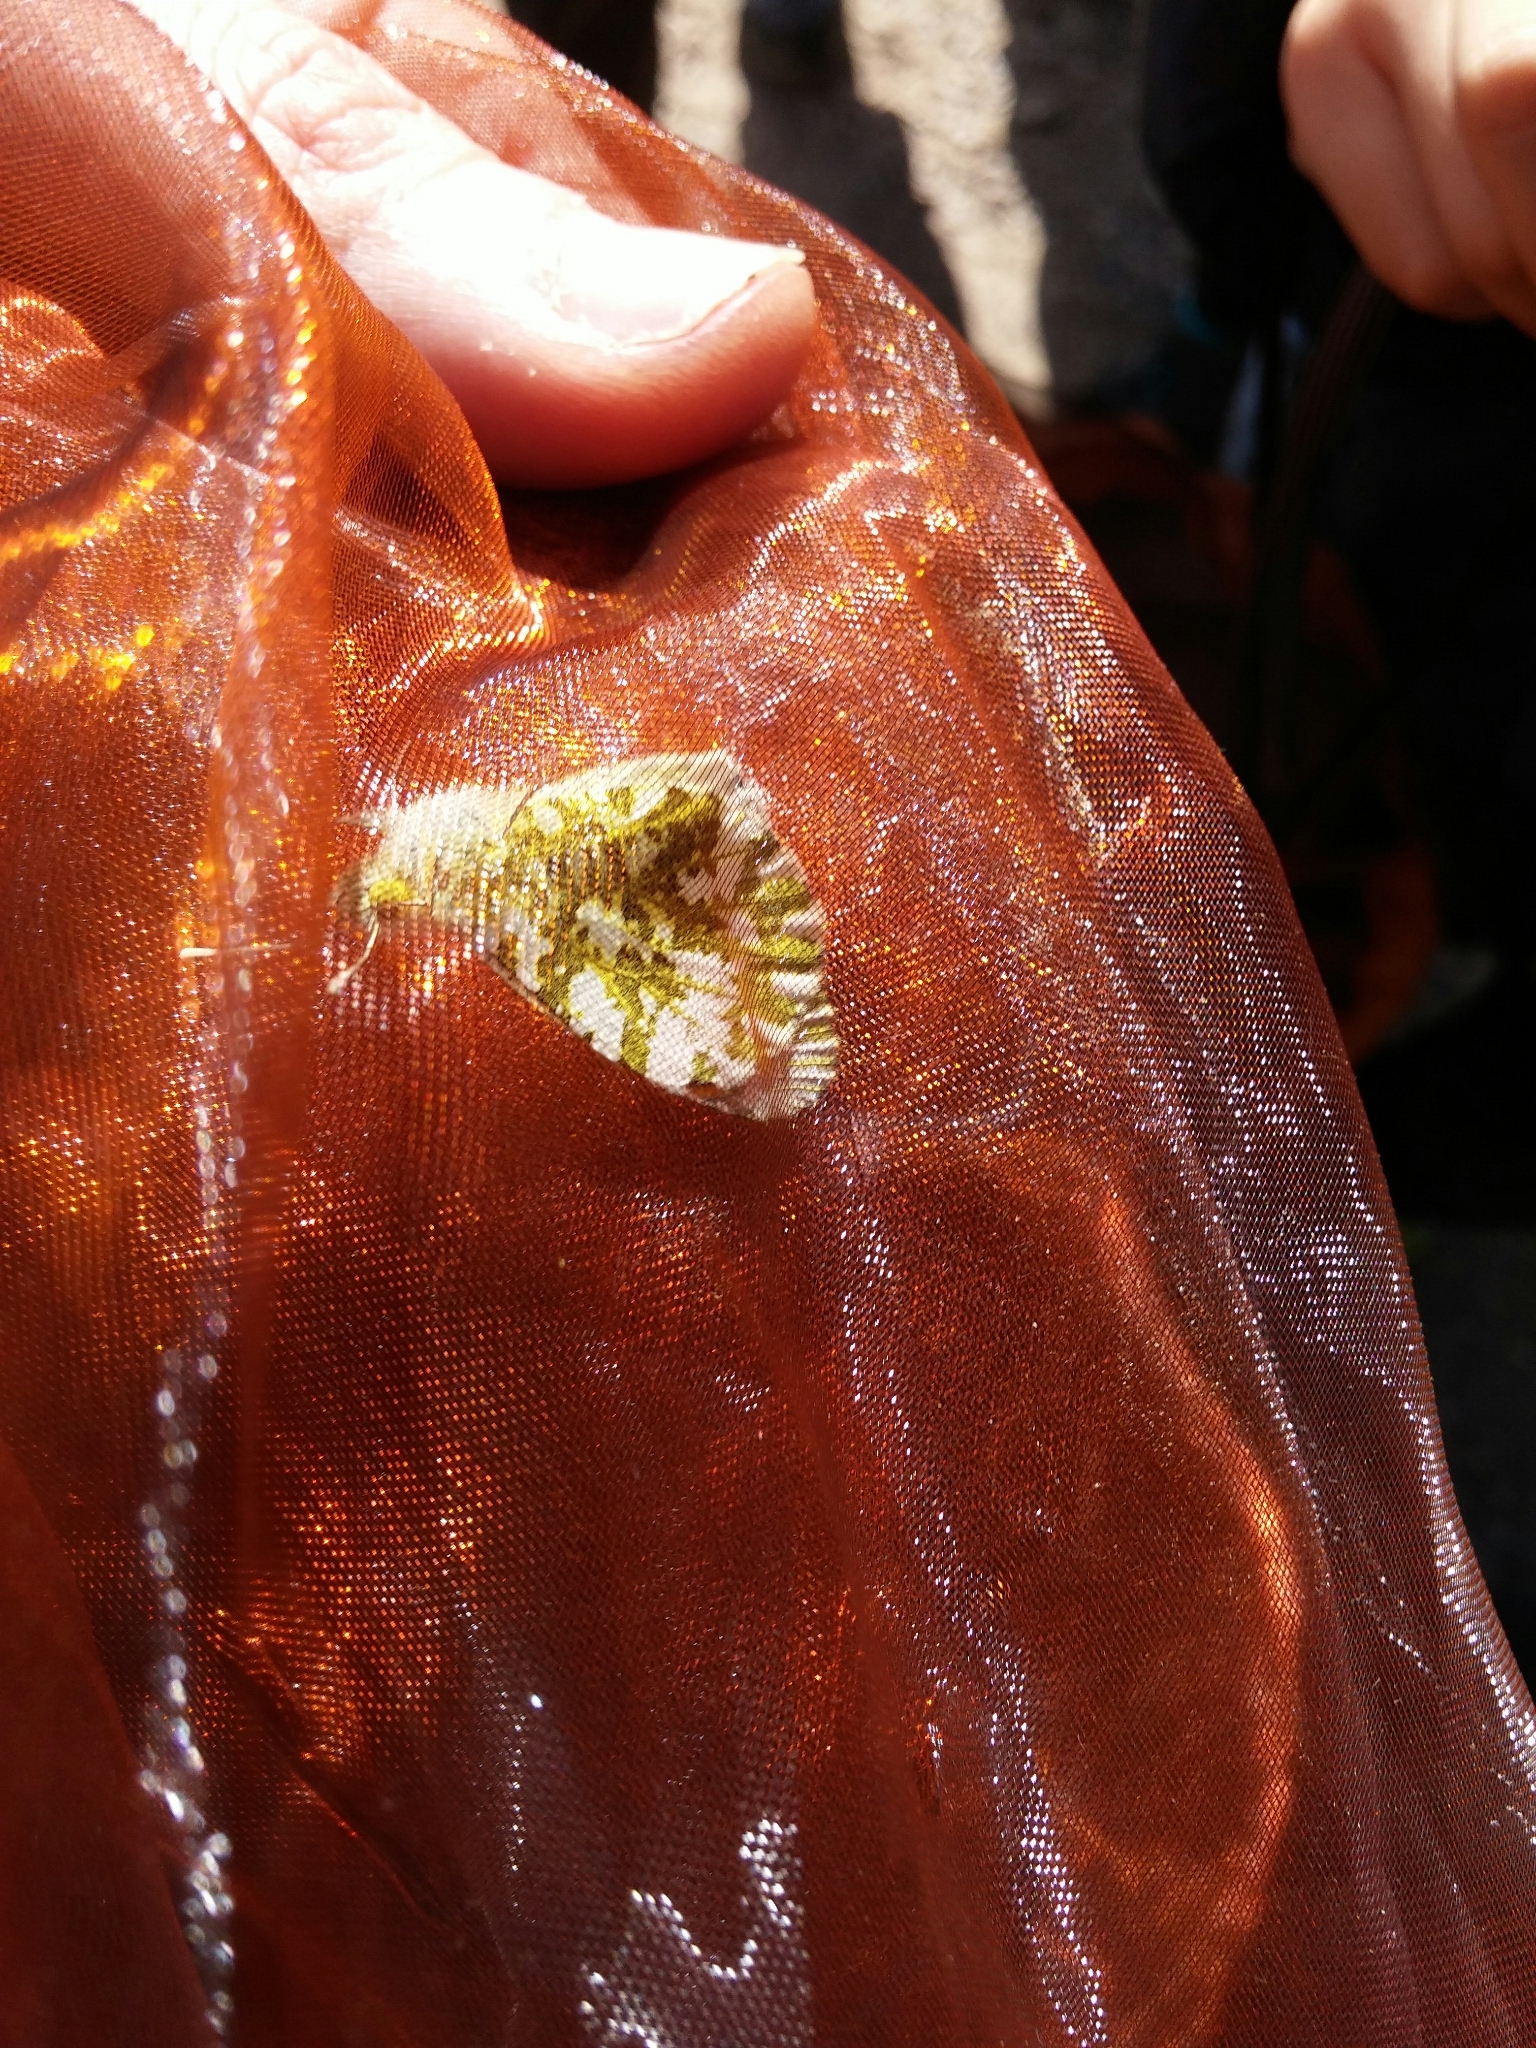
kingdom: Animalia
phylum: Arthropoda
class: Insecta
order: Lepidoptera
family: Pieridae
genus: Anthocharis
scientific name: Anthocharis cardamines
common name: Orange-tip
